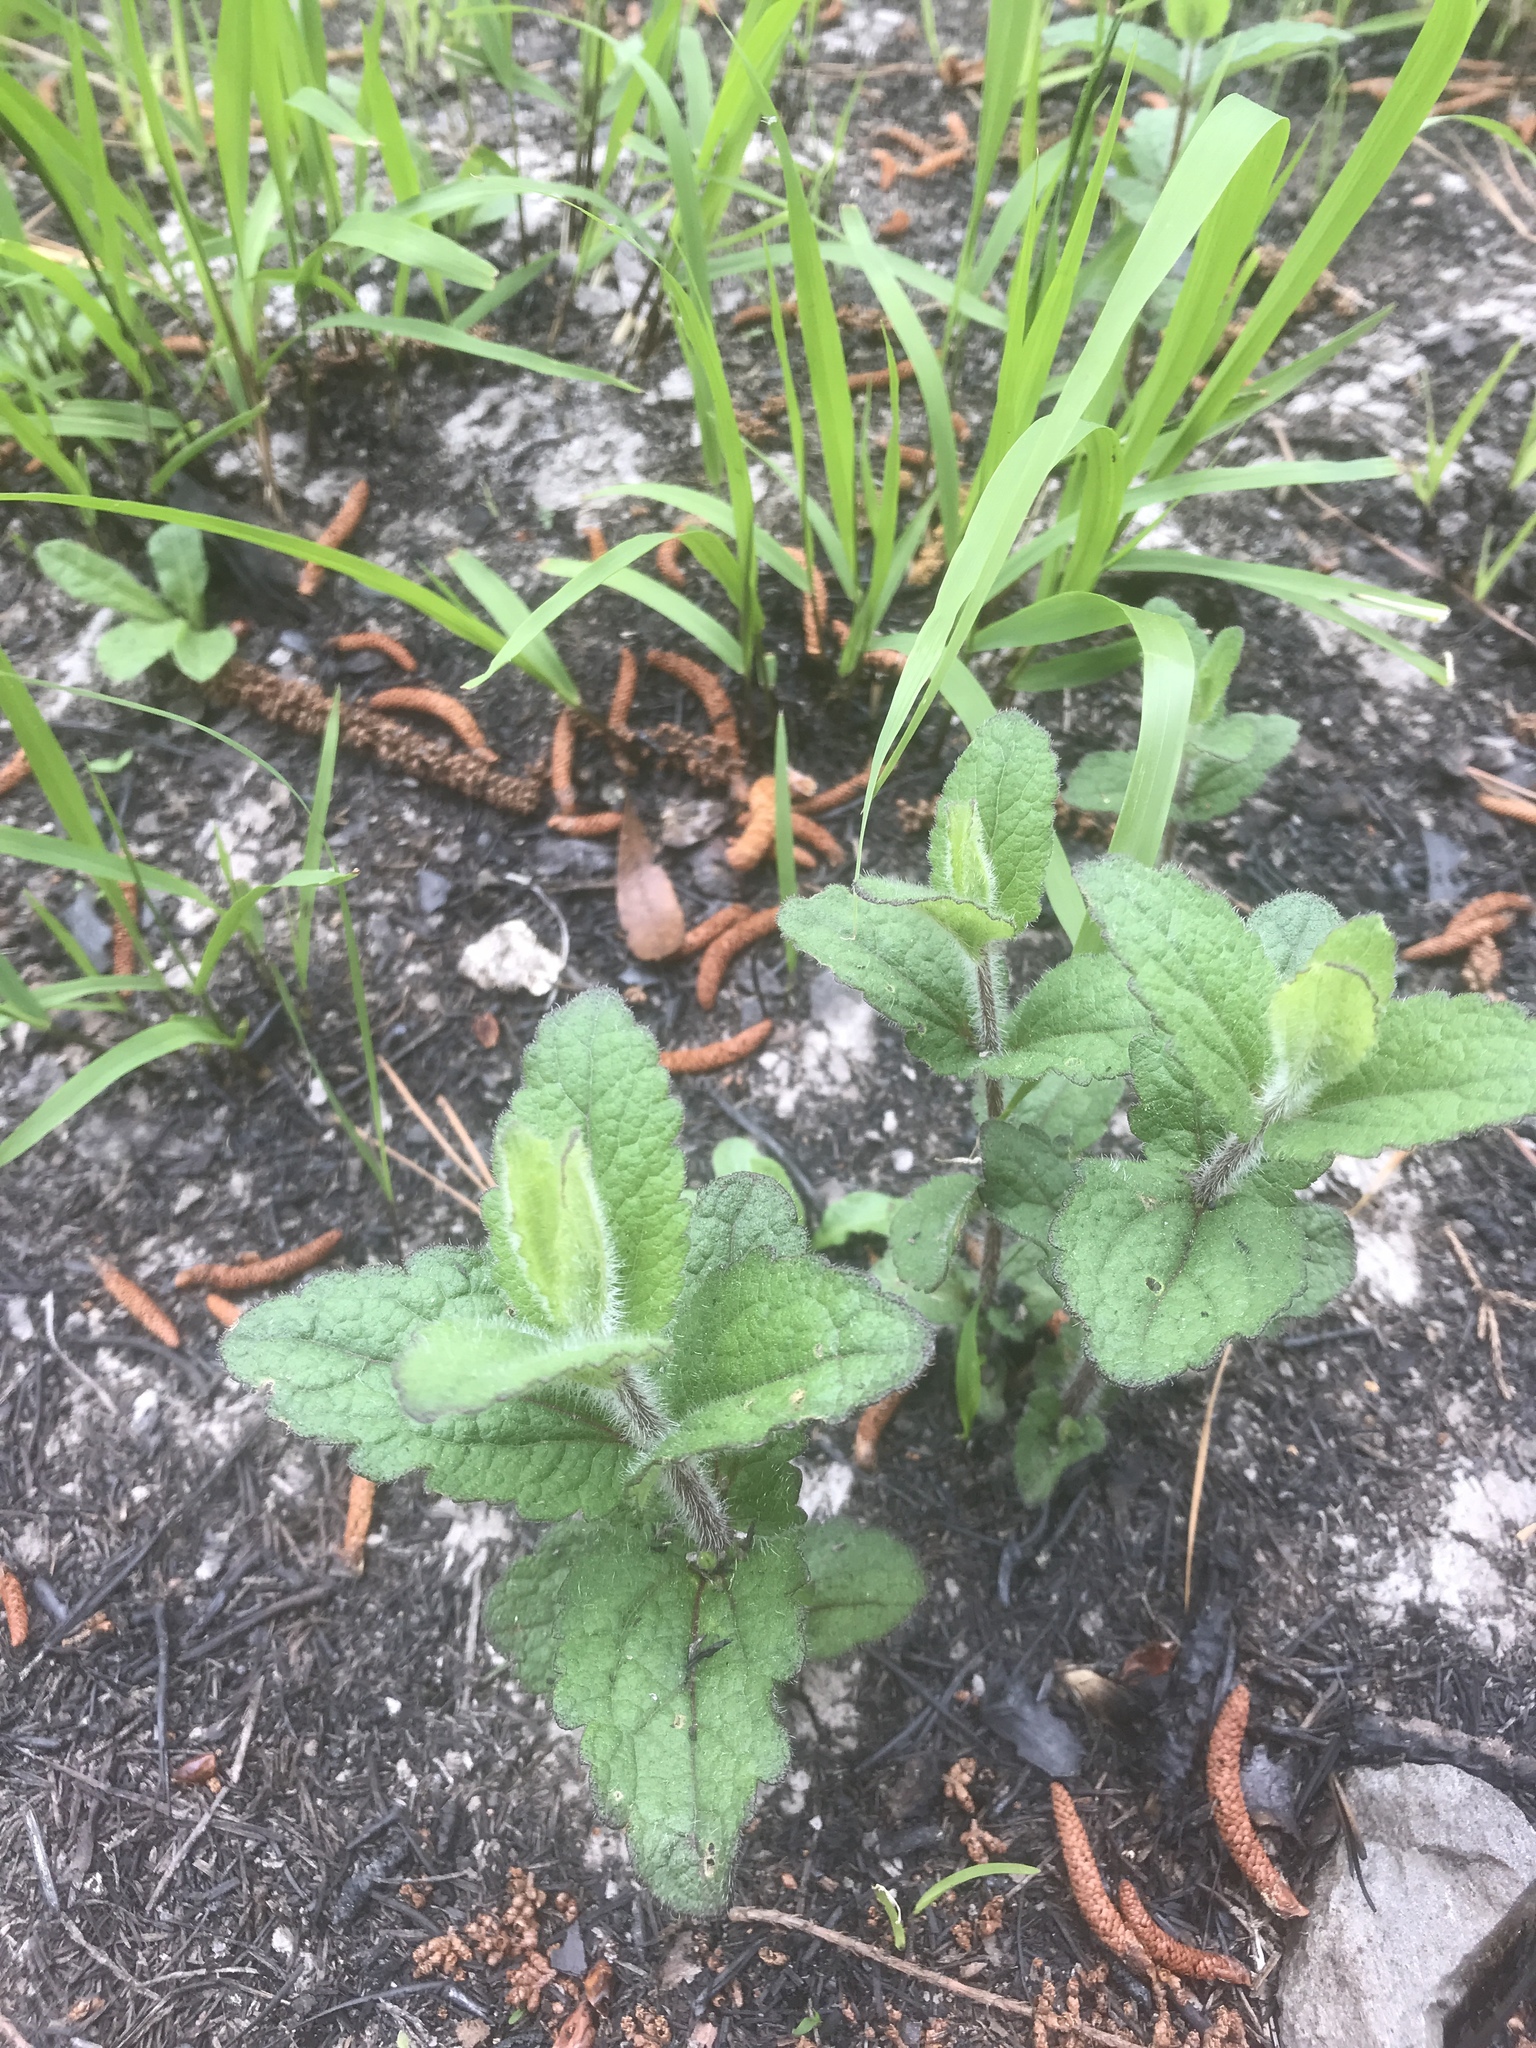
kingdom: Plantae
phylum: Tracheophyta
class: Magnoliopsida
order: Asterales
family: Asteraceae
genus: Eupatorium
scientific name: Eupatorium pilosum
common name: Rough boneset
